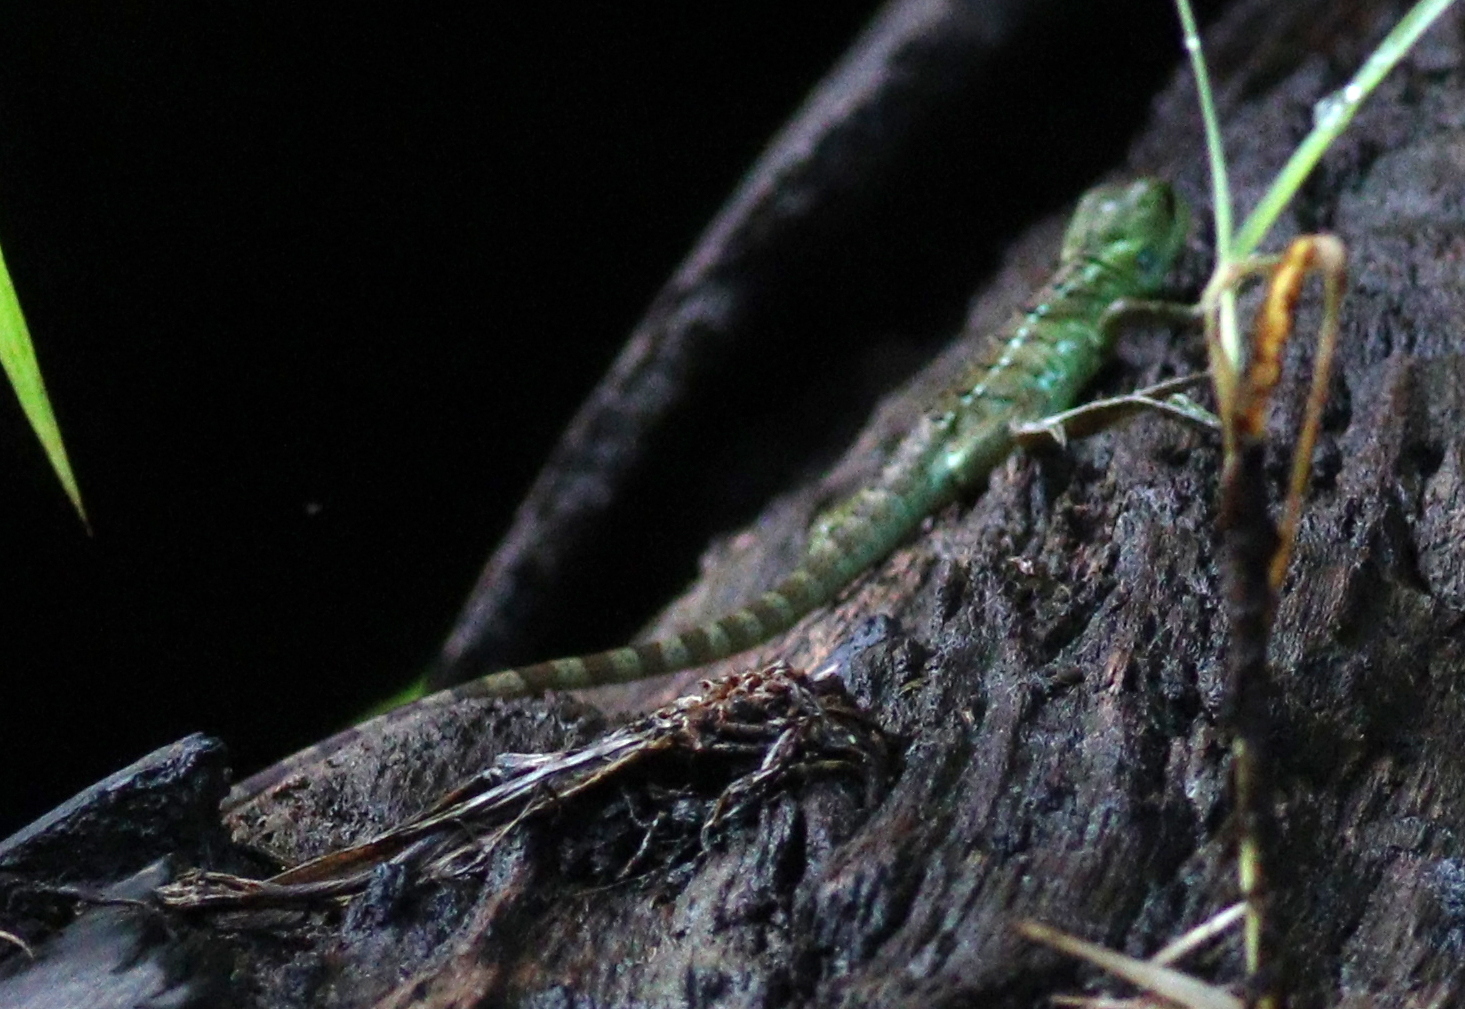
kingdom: Animalia
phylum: Chordata
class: Squamata
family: Corytophanidae
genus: Basiliscus
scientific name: Basiliscus plumifrons
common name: Green basilisk
